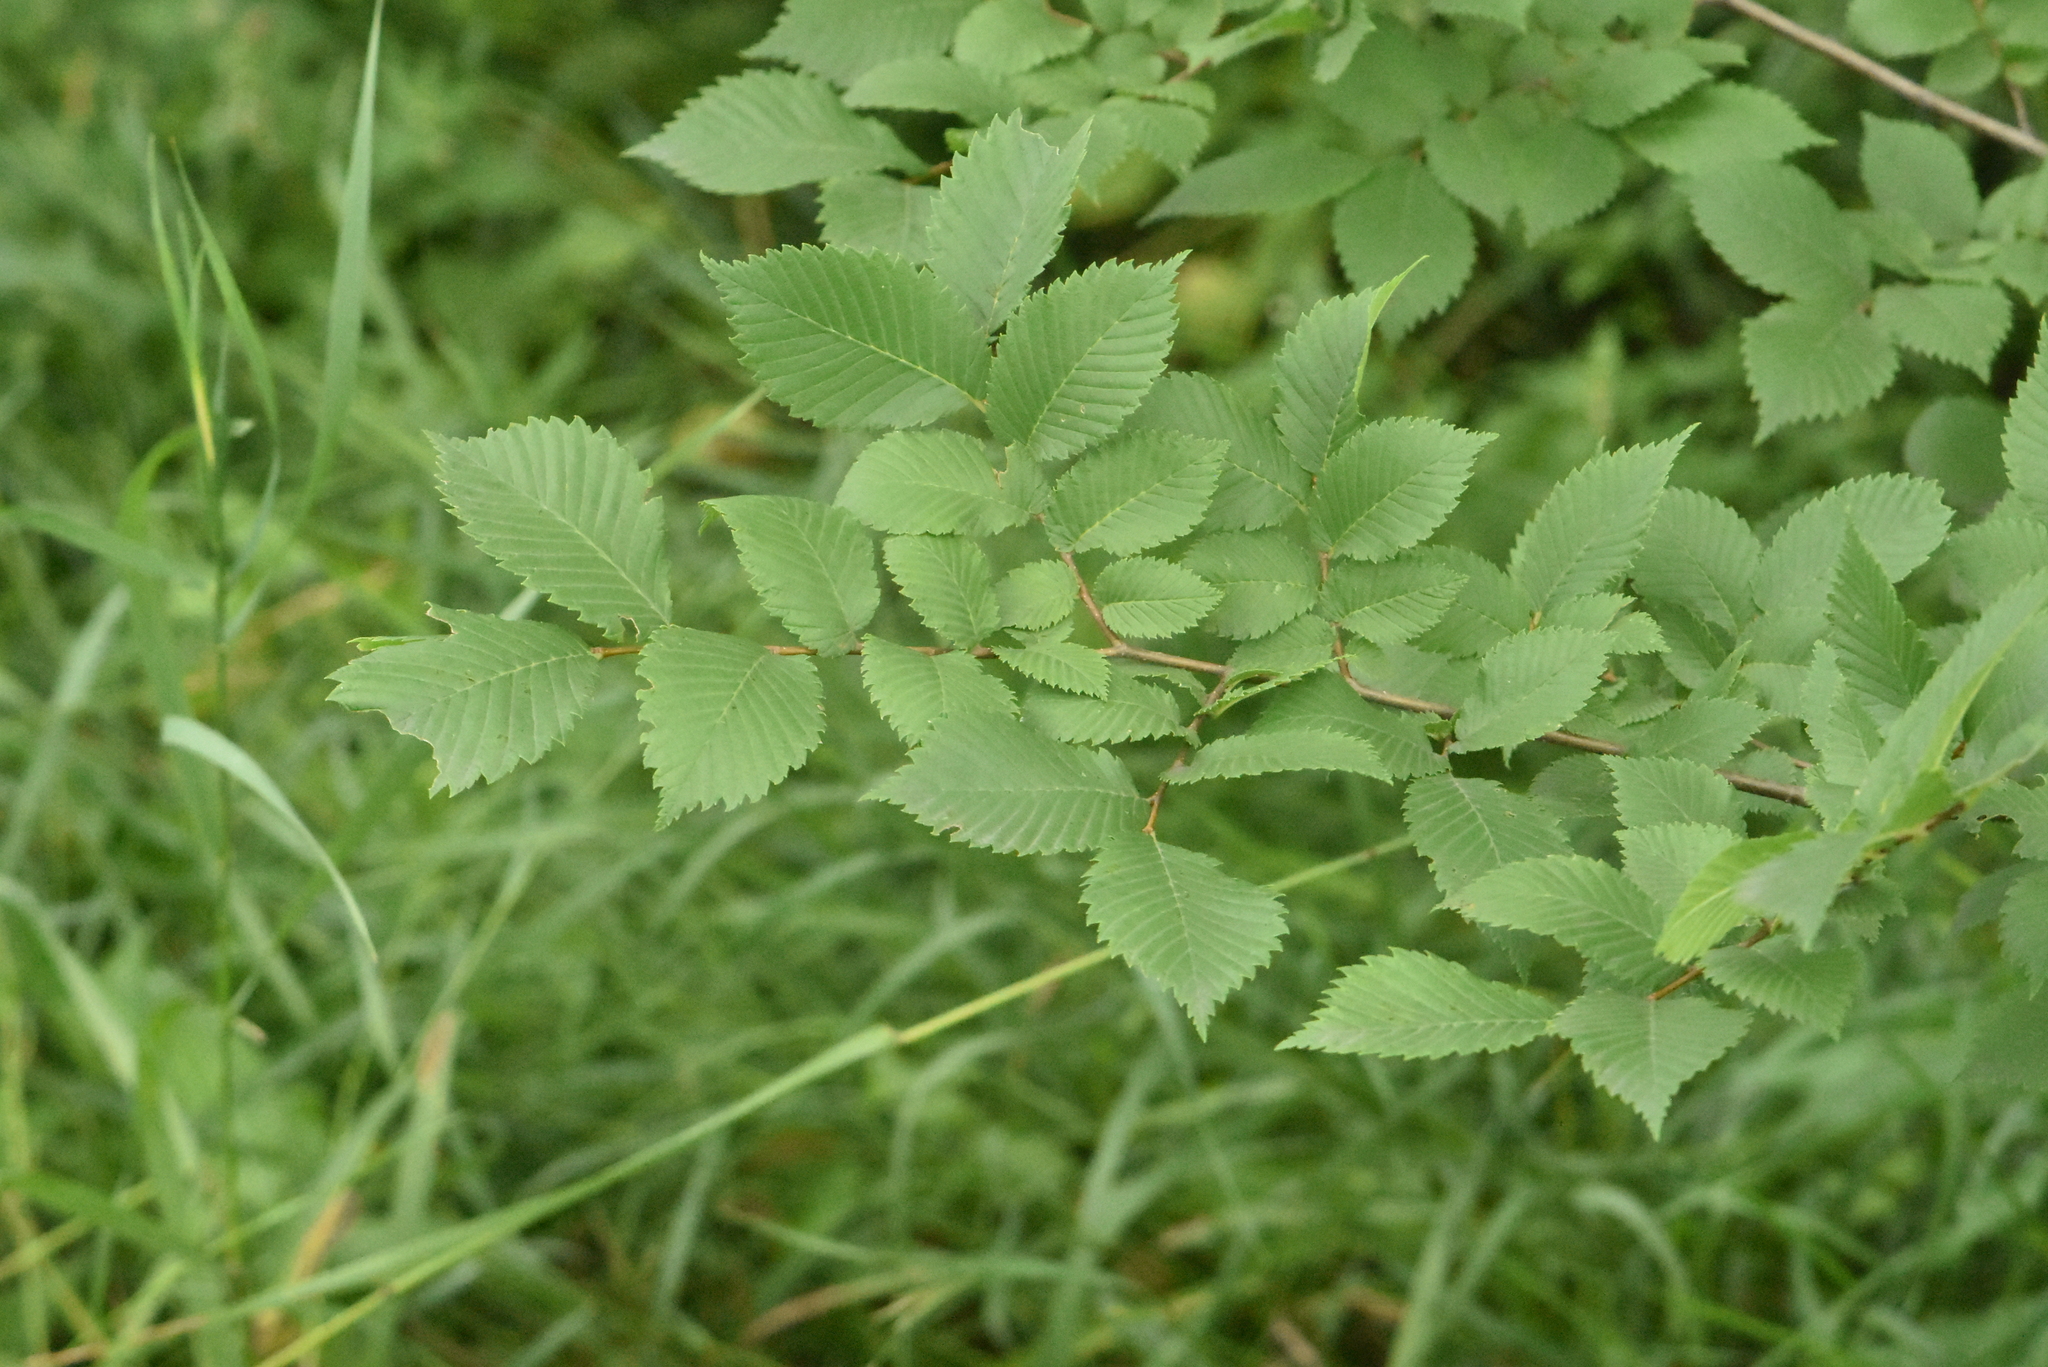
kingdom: Plantae
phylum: Tracheophyta
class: Magnoliopsida
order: Rosales
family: Ulmaceae
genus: Ulmus
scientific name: Ulmus laevis
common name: European white-elm
